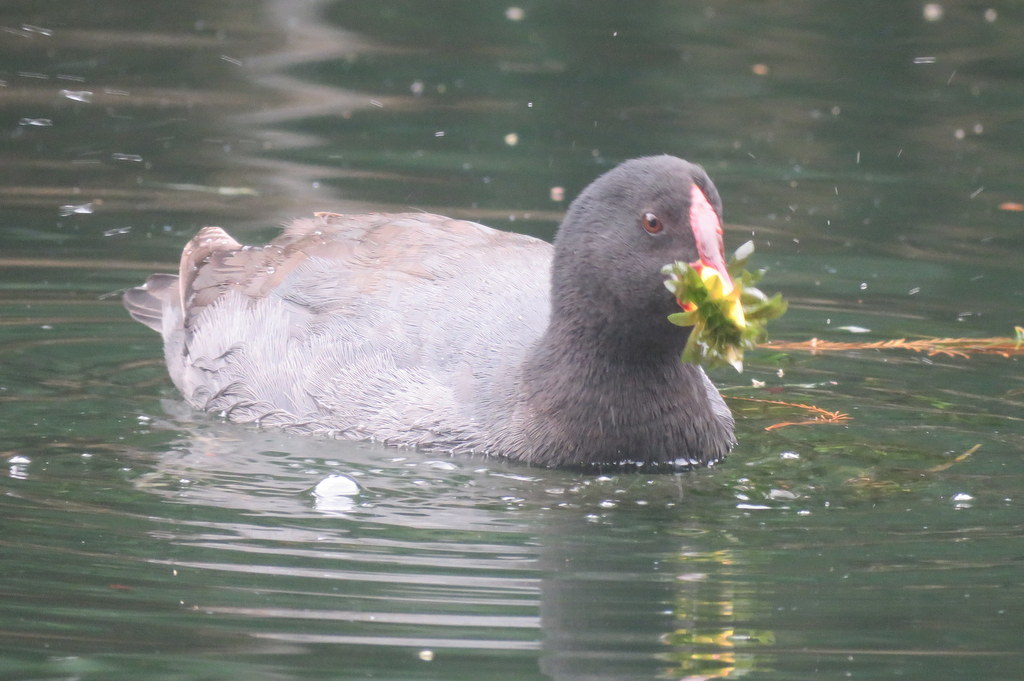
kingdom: Animalia
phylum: Chordata
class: Aves
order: Gruiformes
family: Rallidae
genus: Fulica
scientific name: Fulica rufifrons
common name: Red-fronted coot
